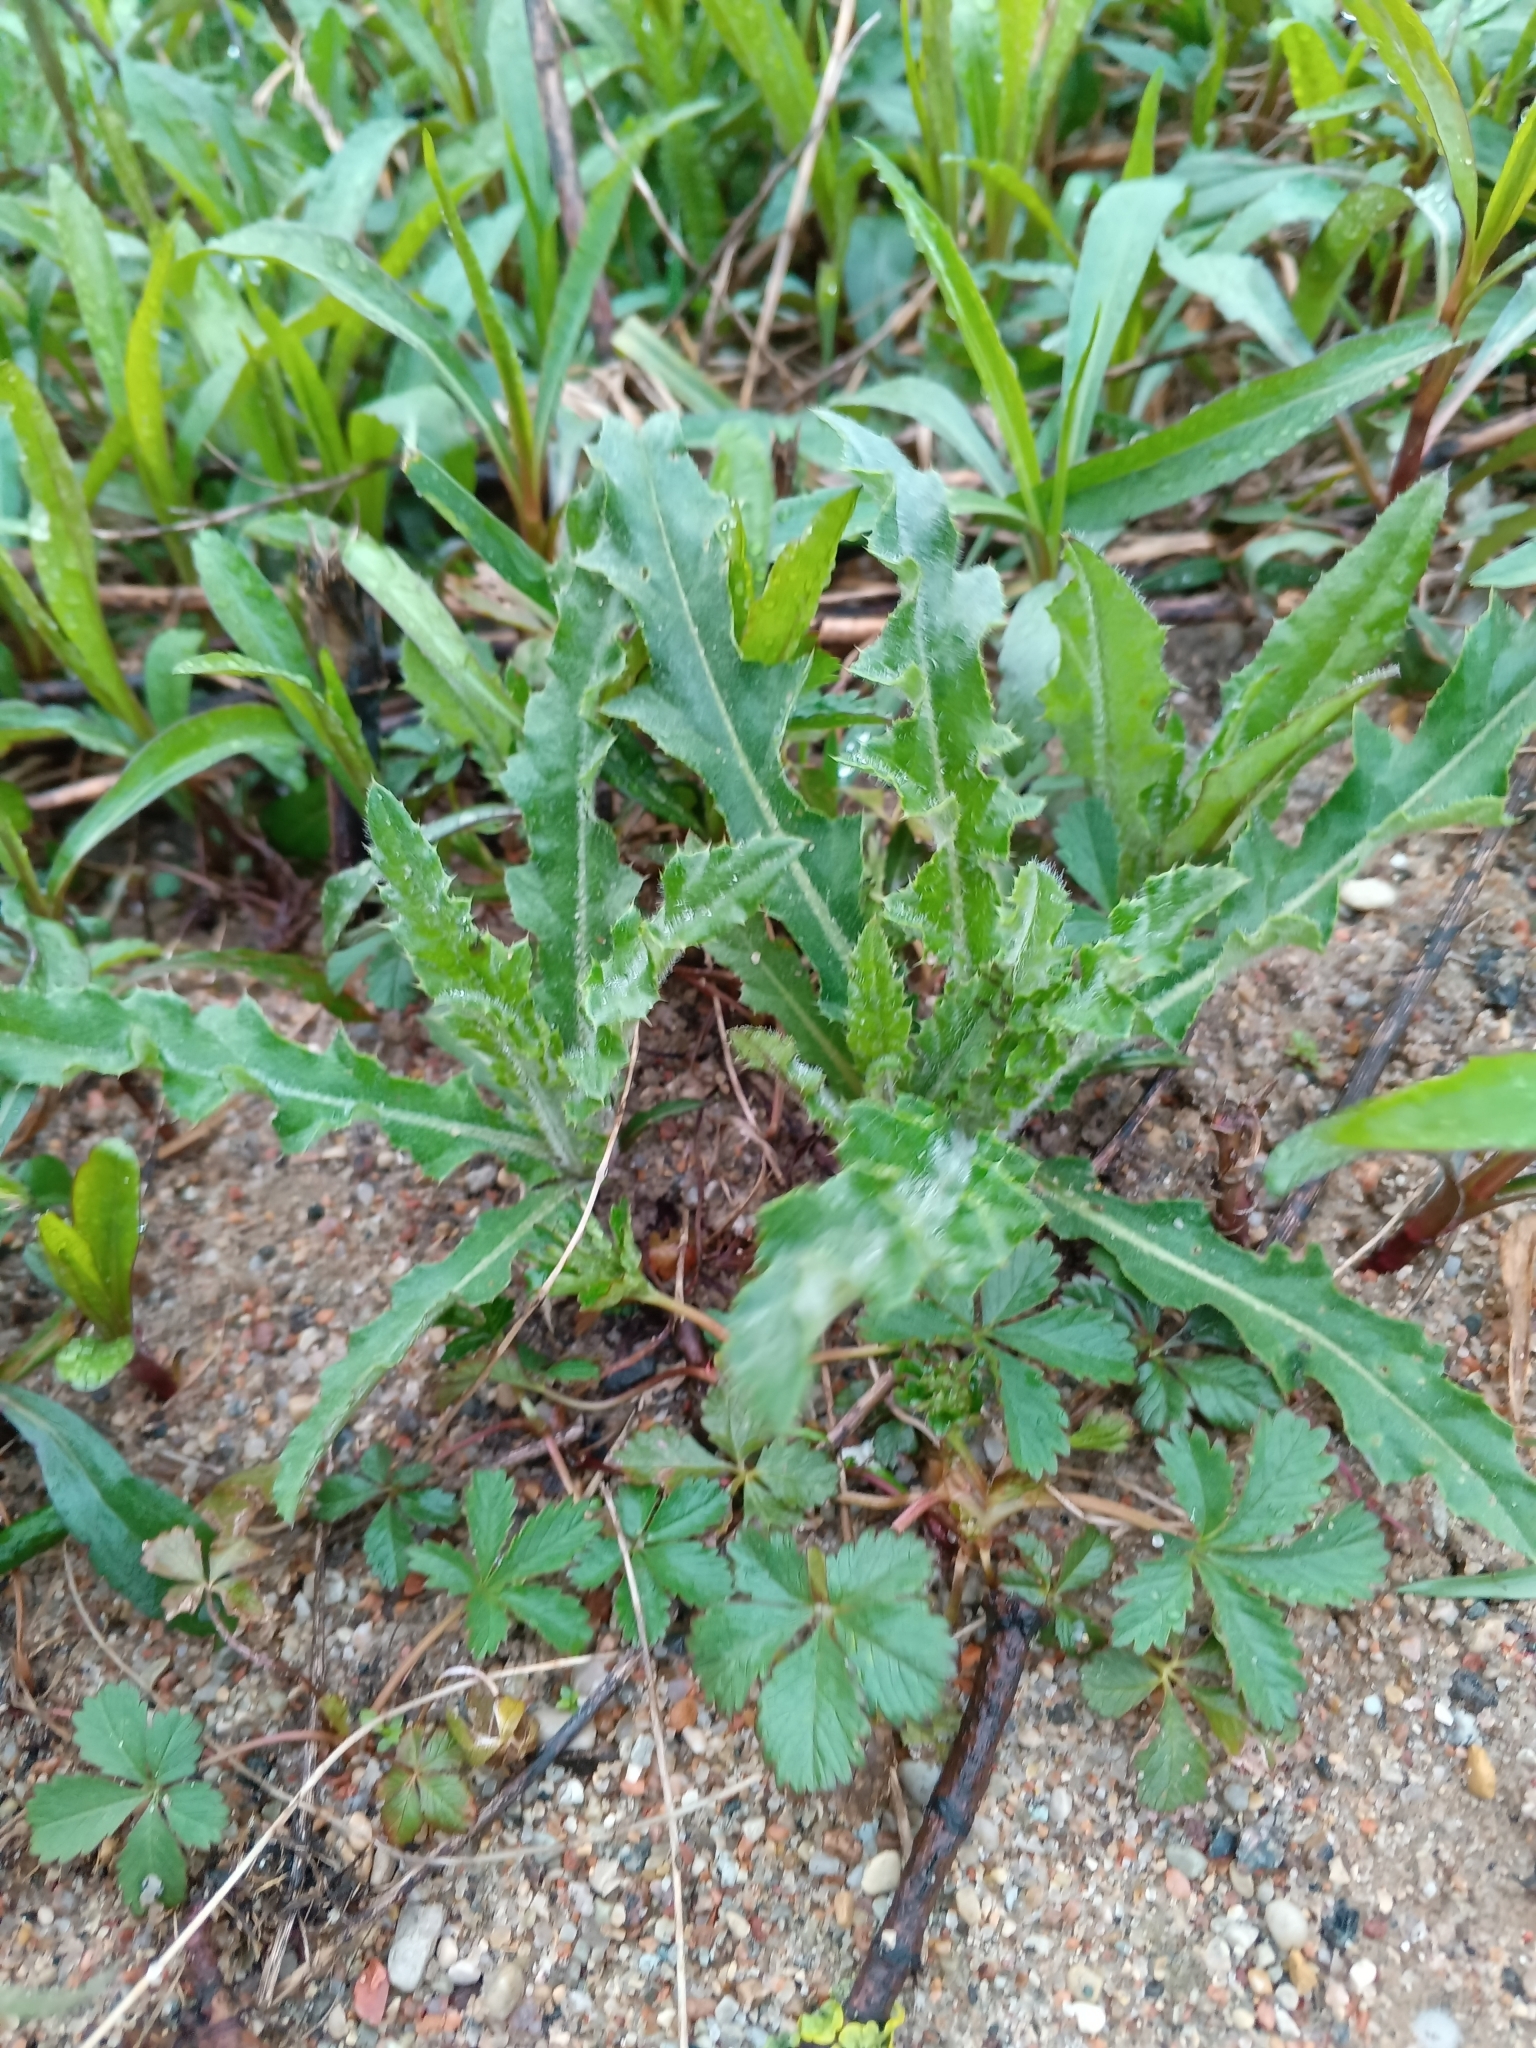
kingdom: Plantae
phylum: Tracheophyta
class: Magnoliopsida
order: Asterales
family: Asteraceae
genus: Cirsium
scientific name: Cirsium arvense
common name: Creeping thistle
